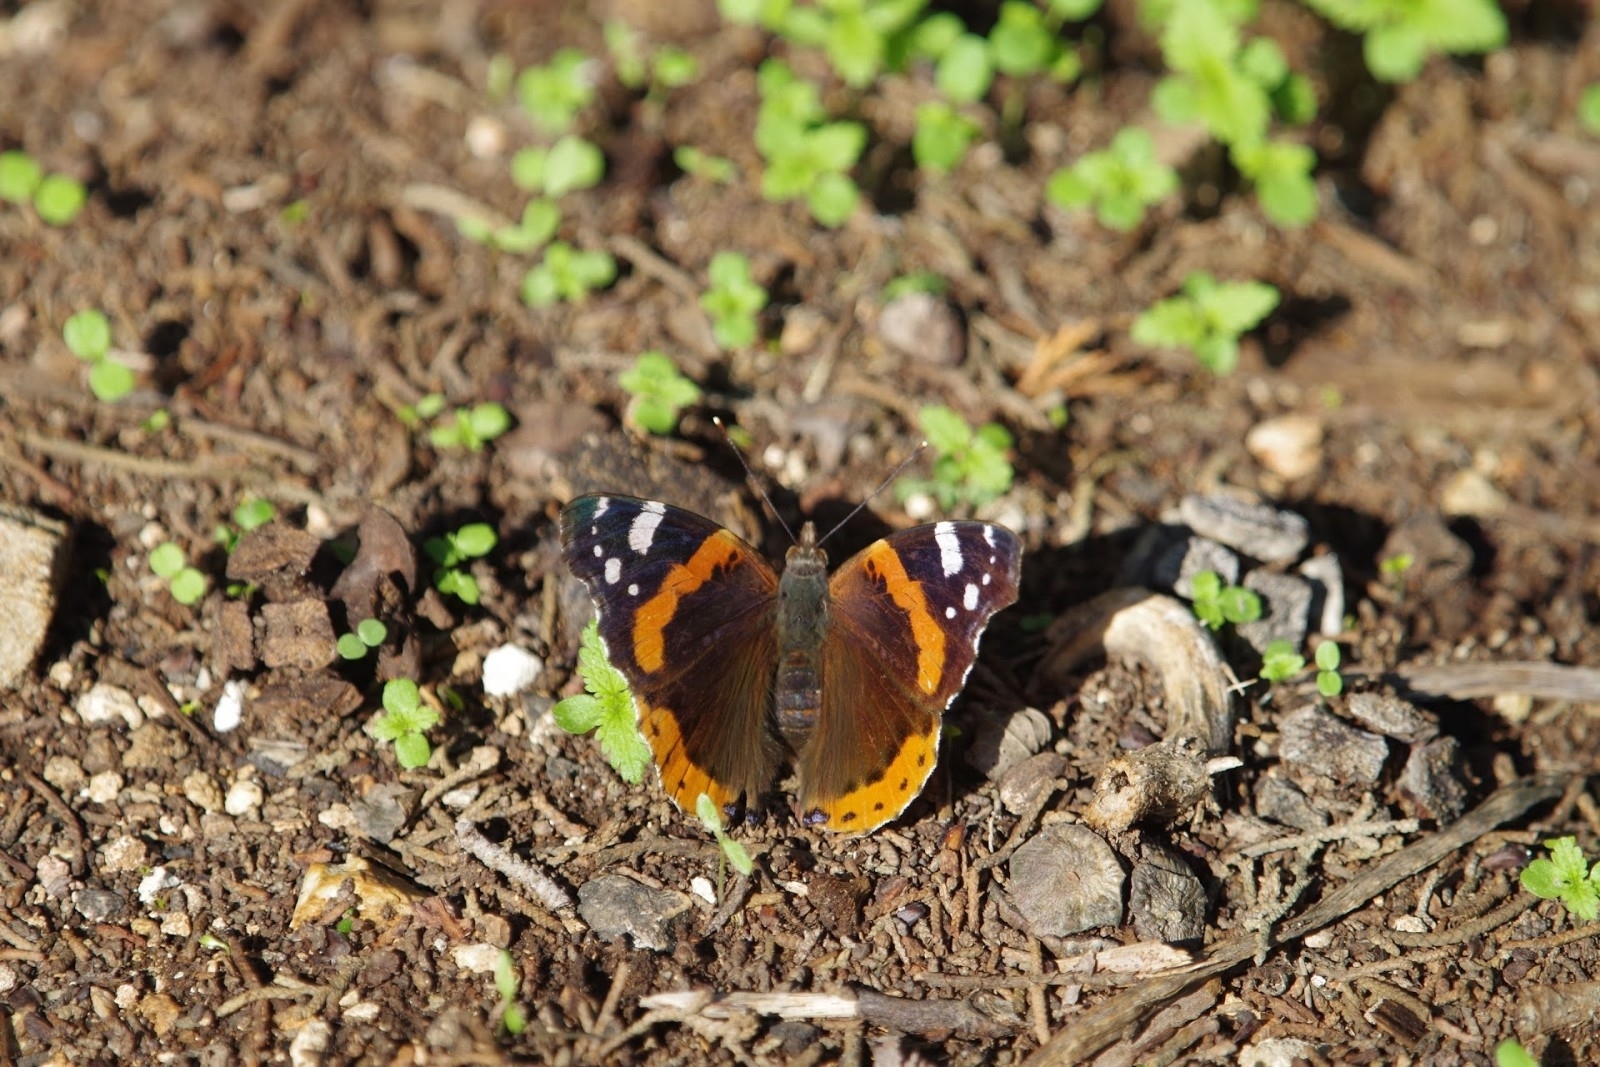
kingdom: Animalia
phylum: Arthropoda
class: Insecta
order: Lepidoptera
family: Nymphalidae
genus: Vanessa
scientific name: Vanessa atalanta
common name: Red admiral
